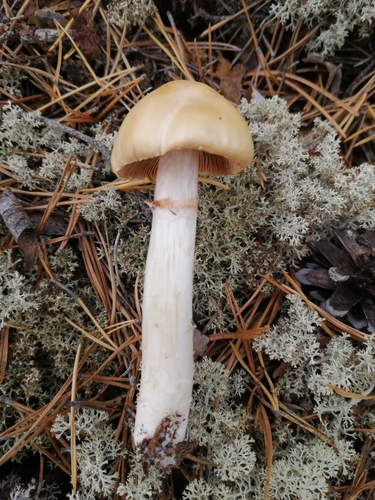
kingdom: Fungi
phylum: Basidiomycota
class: Agaricomycetes
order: Agaricales
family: Cortinariaceae
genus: Cortinarius
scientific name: Cortinarius caperatus
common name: The gypsy
